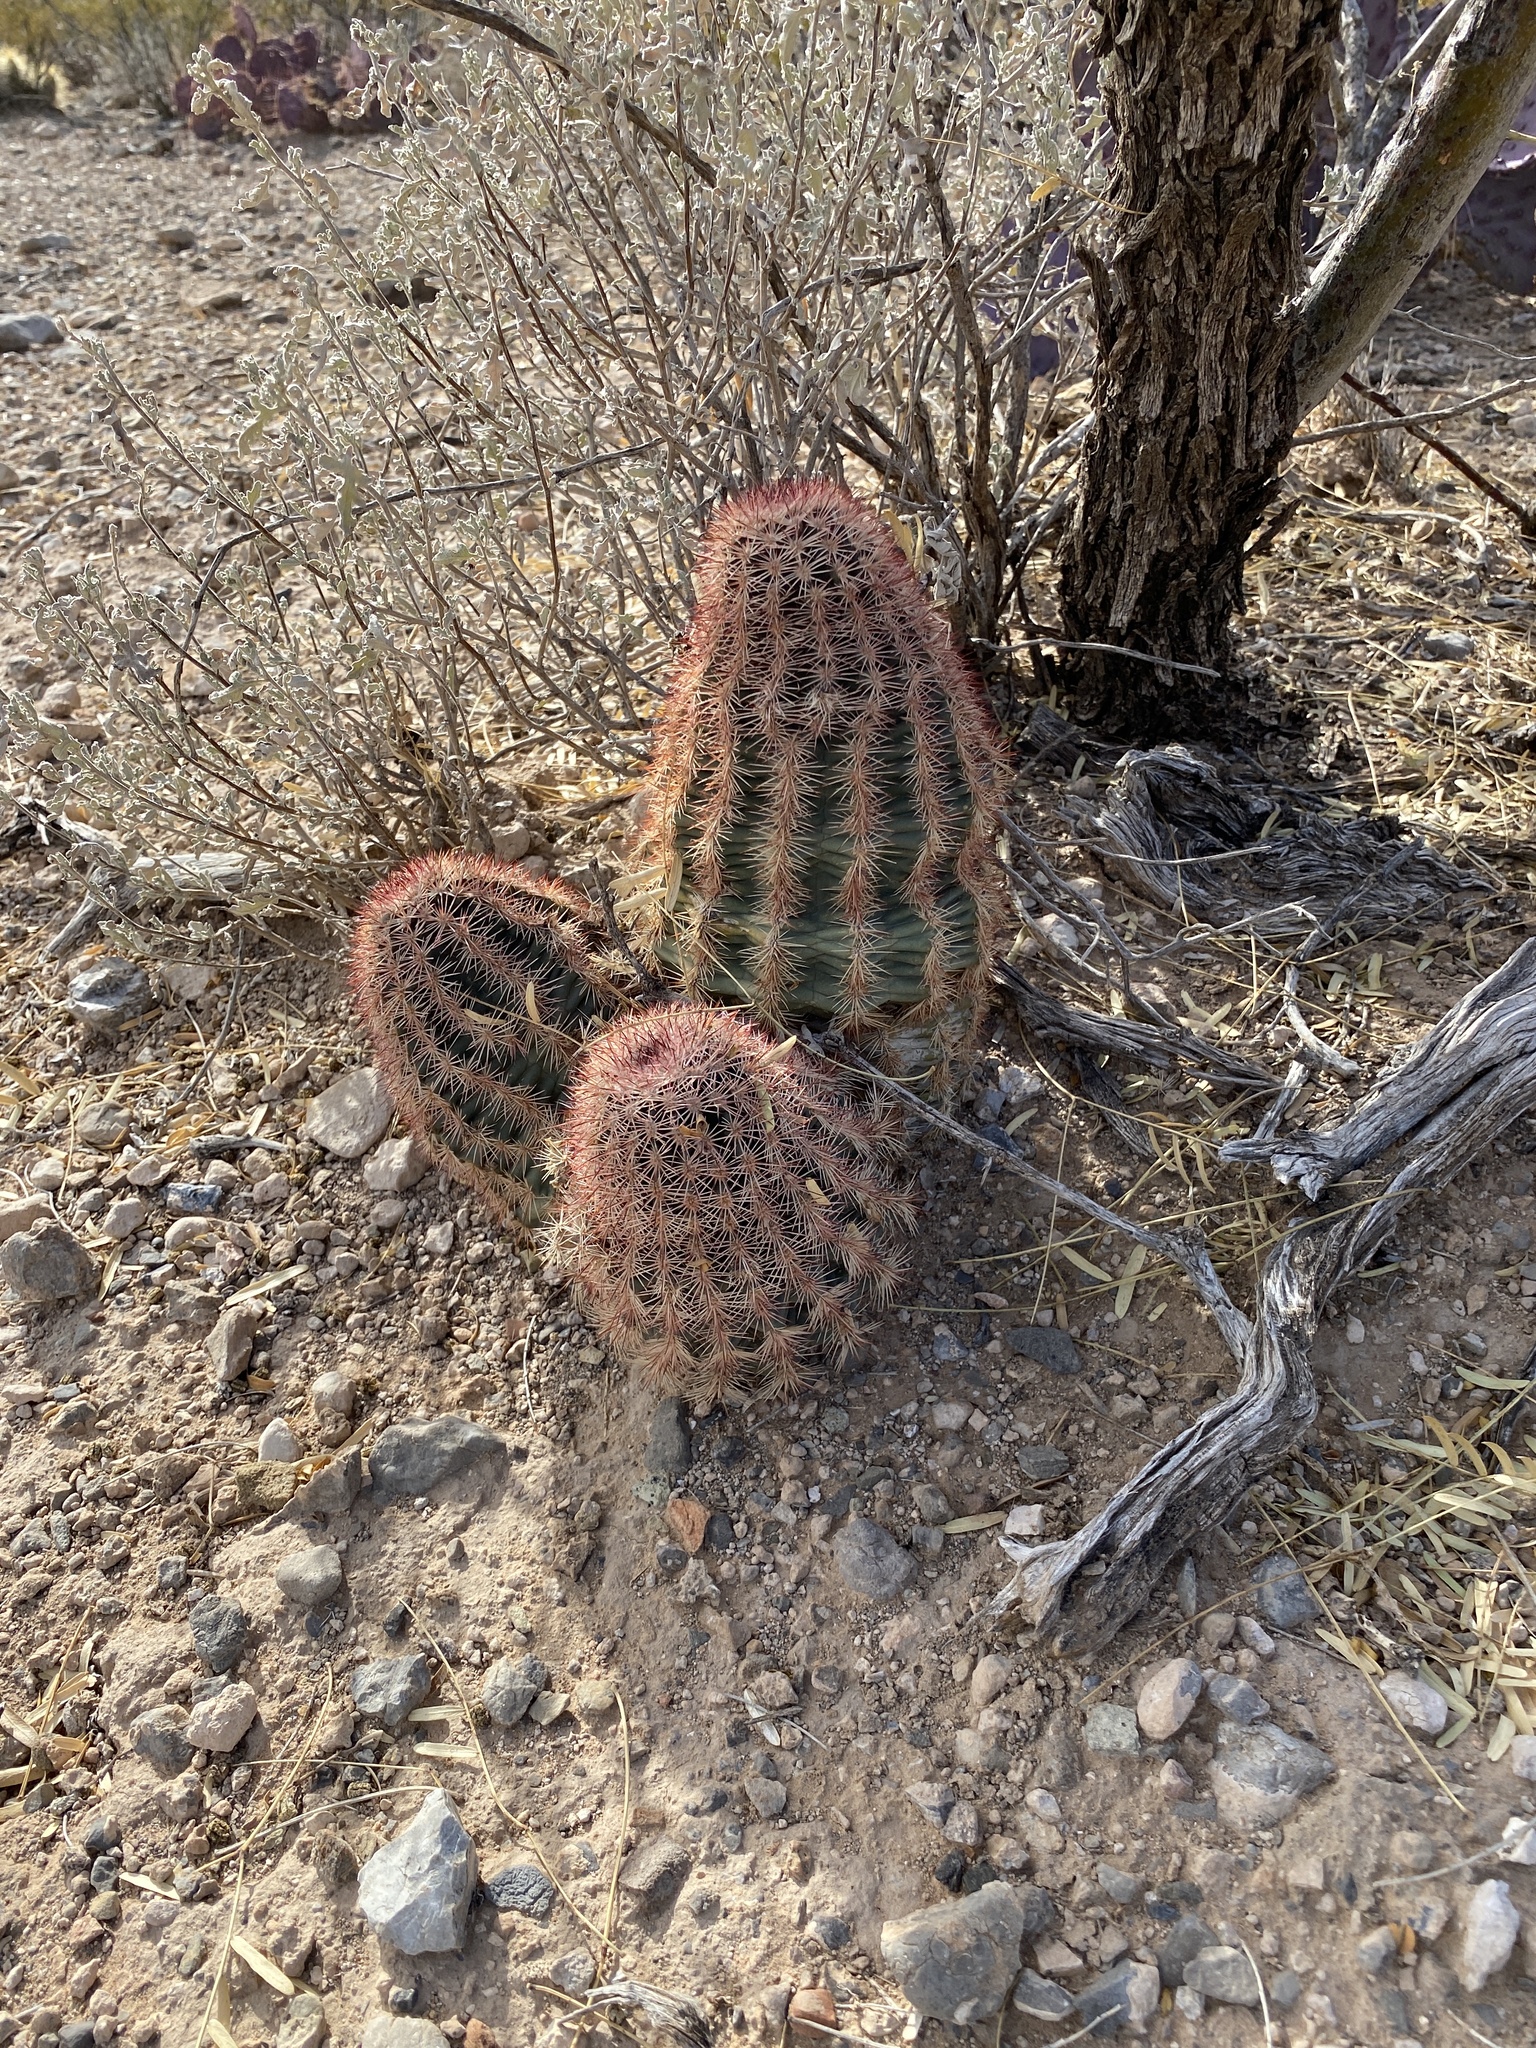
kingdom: Plantae
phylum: Tracheophyta
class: Magnoliopsida
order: Caryophyllales
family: Cactaceae
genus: Echinocereus
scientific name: Echinocereus dasyacanthus
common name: Spiny hedgehog cactus
